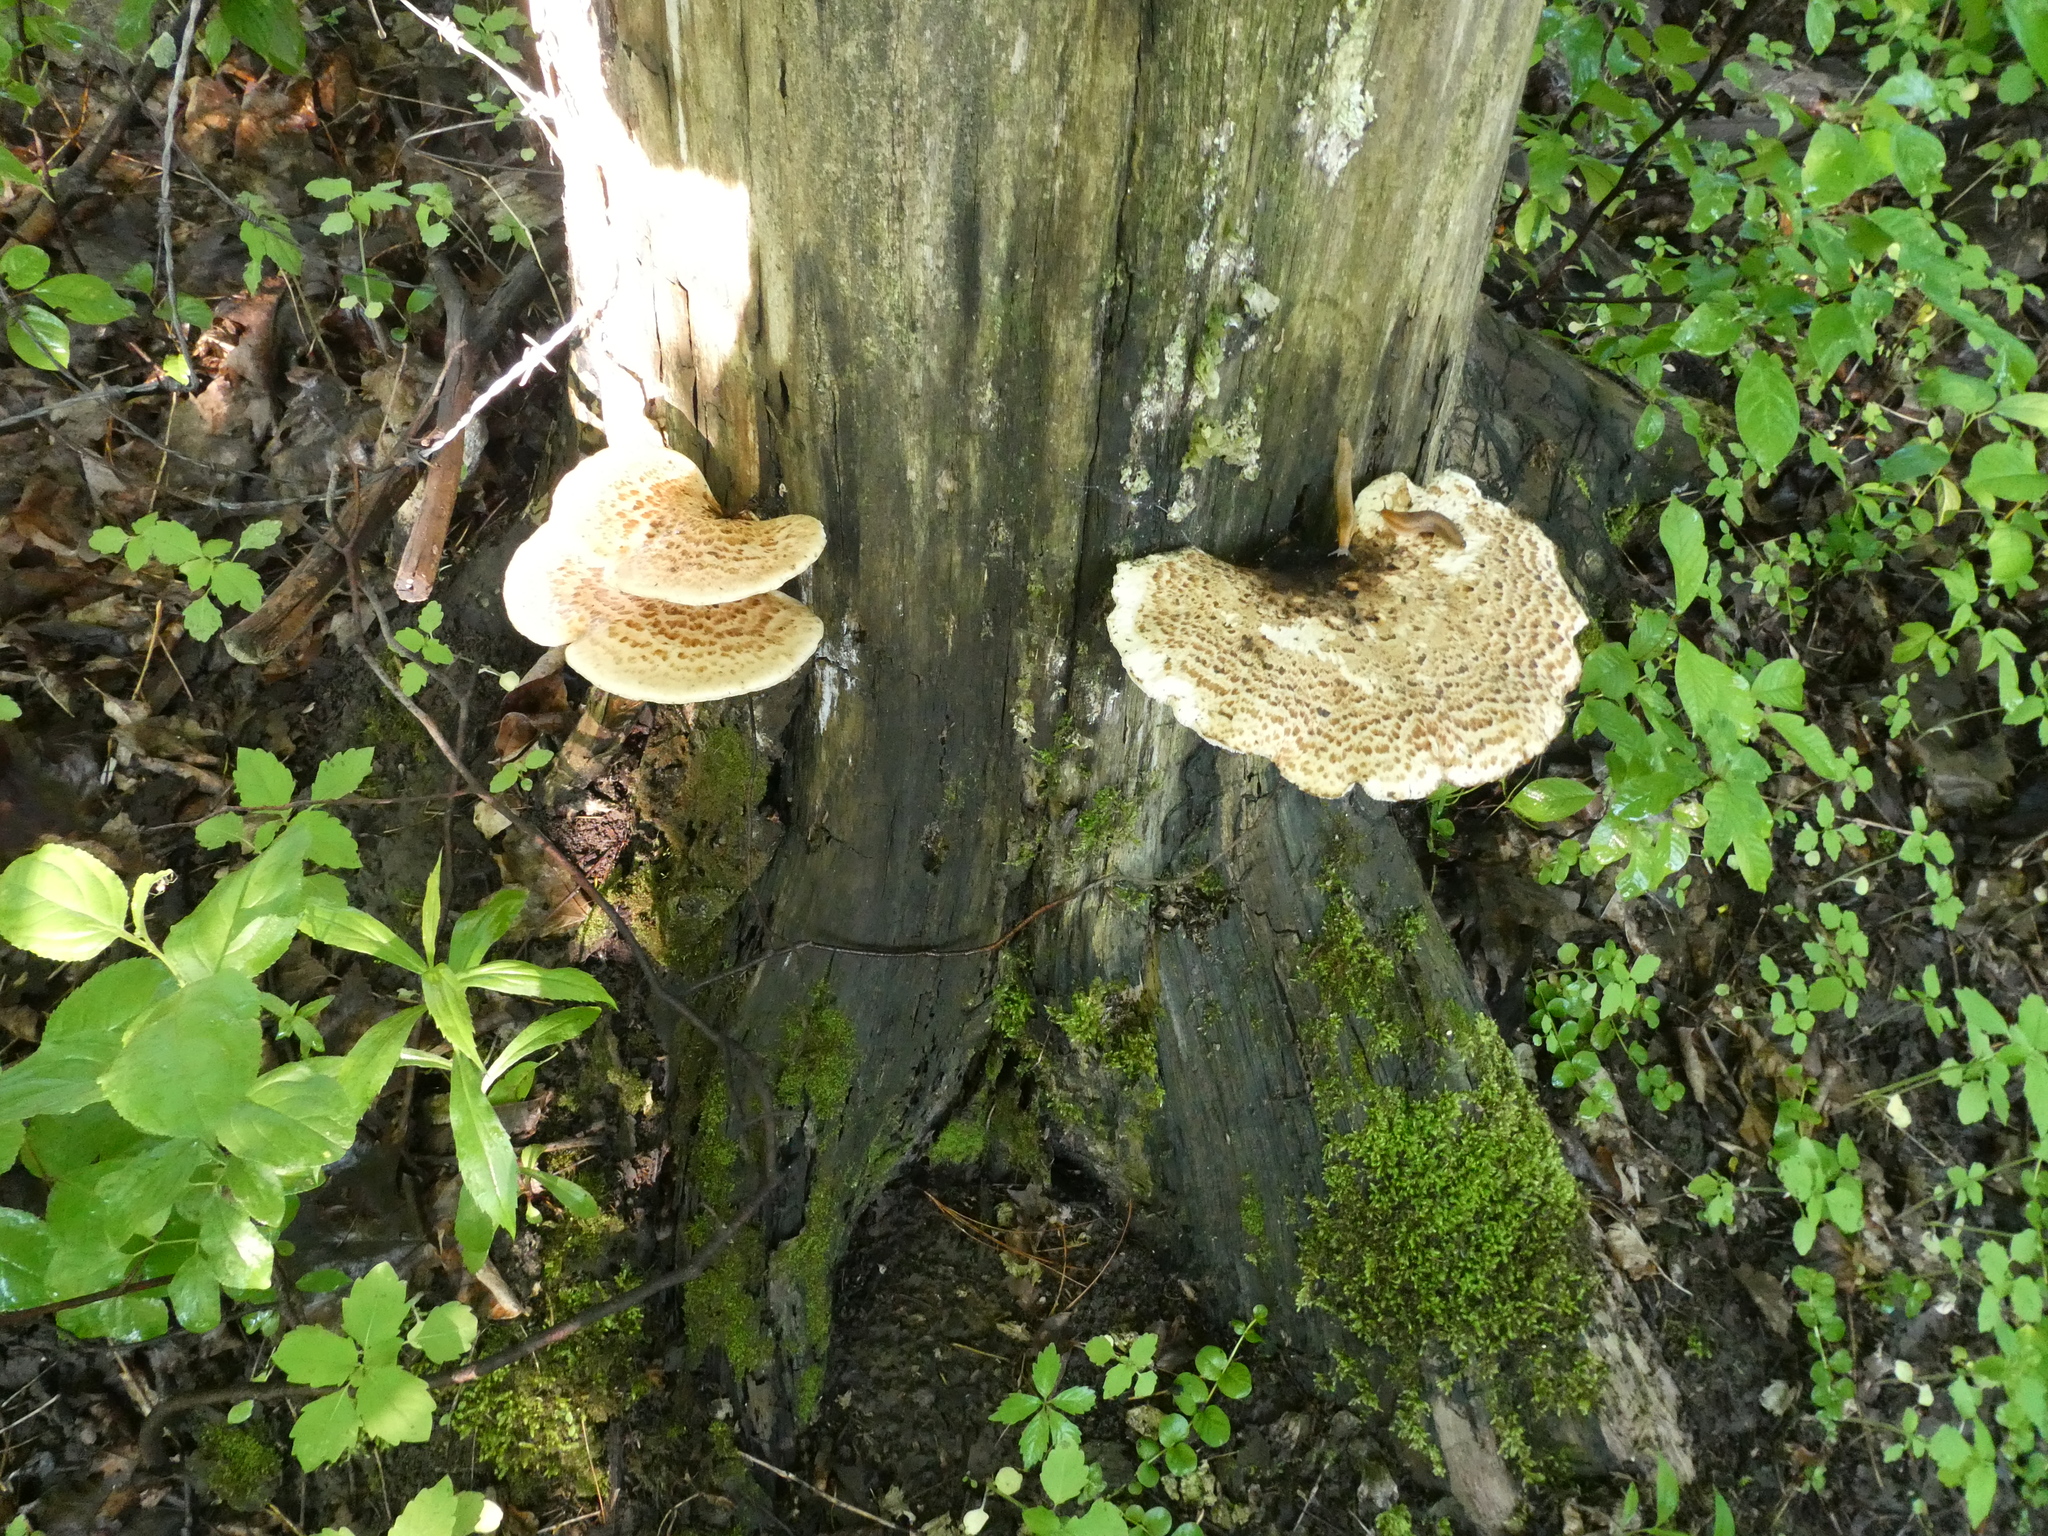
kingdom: Fungi
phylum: Basidiomycota
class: Agaricomycetes
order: Polyporales
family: Polyporaceae
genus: Cerioporus
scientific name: Cerioporus squamosus
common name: Dryad's saddle
